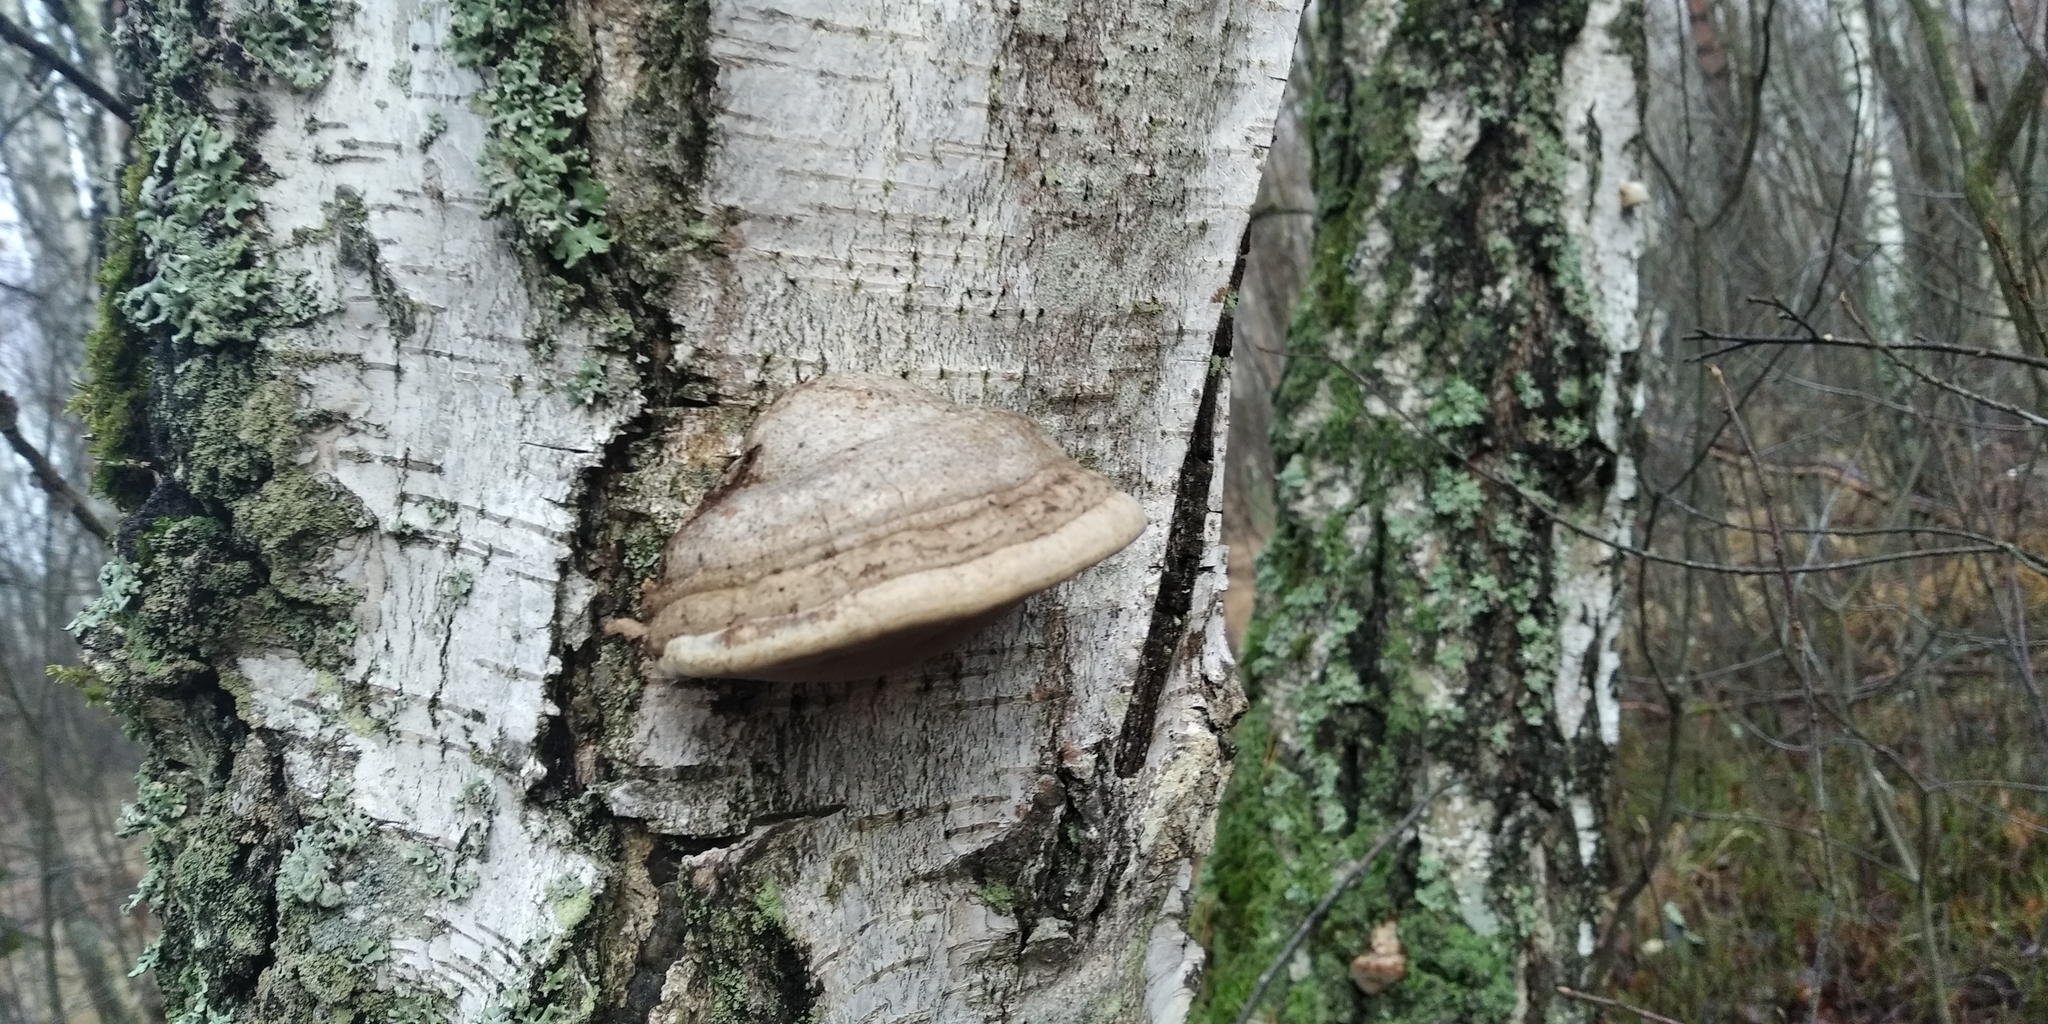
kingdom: Fungi
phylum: Basidiomycota
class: Agaricomycetes
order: Polyporales
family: Polyporaceae
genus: Fomes
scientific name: Fomes fomentarius
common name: Hoof fungus
